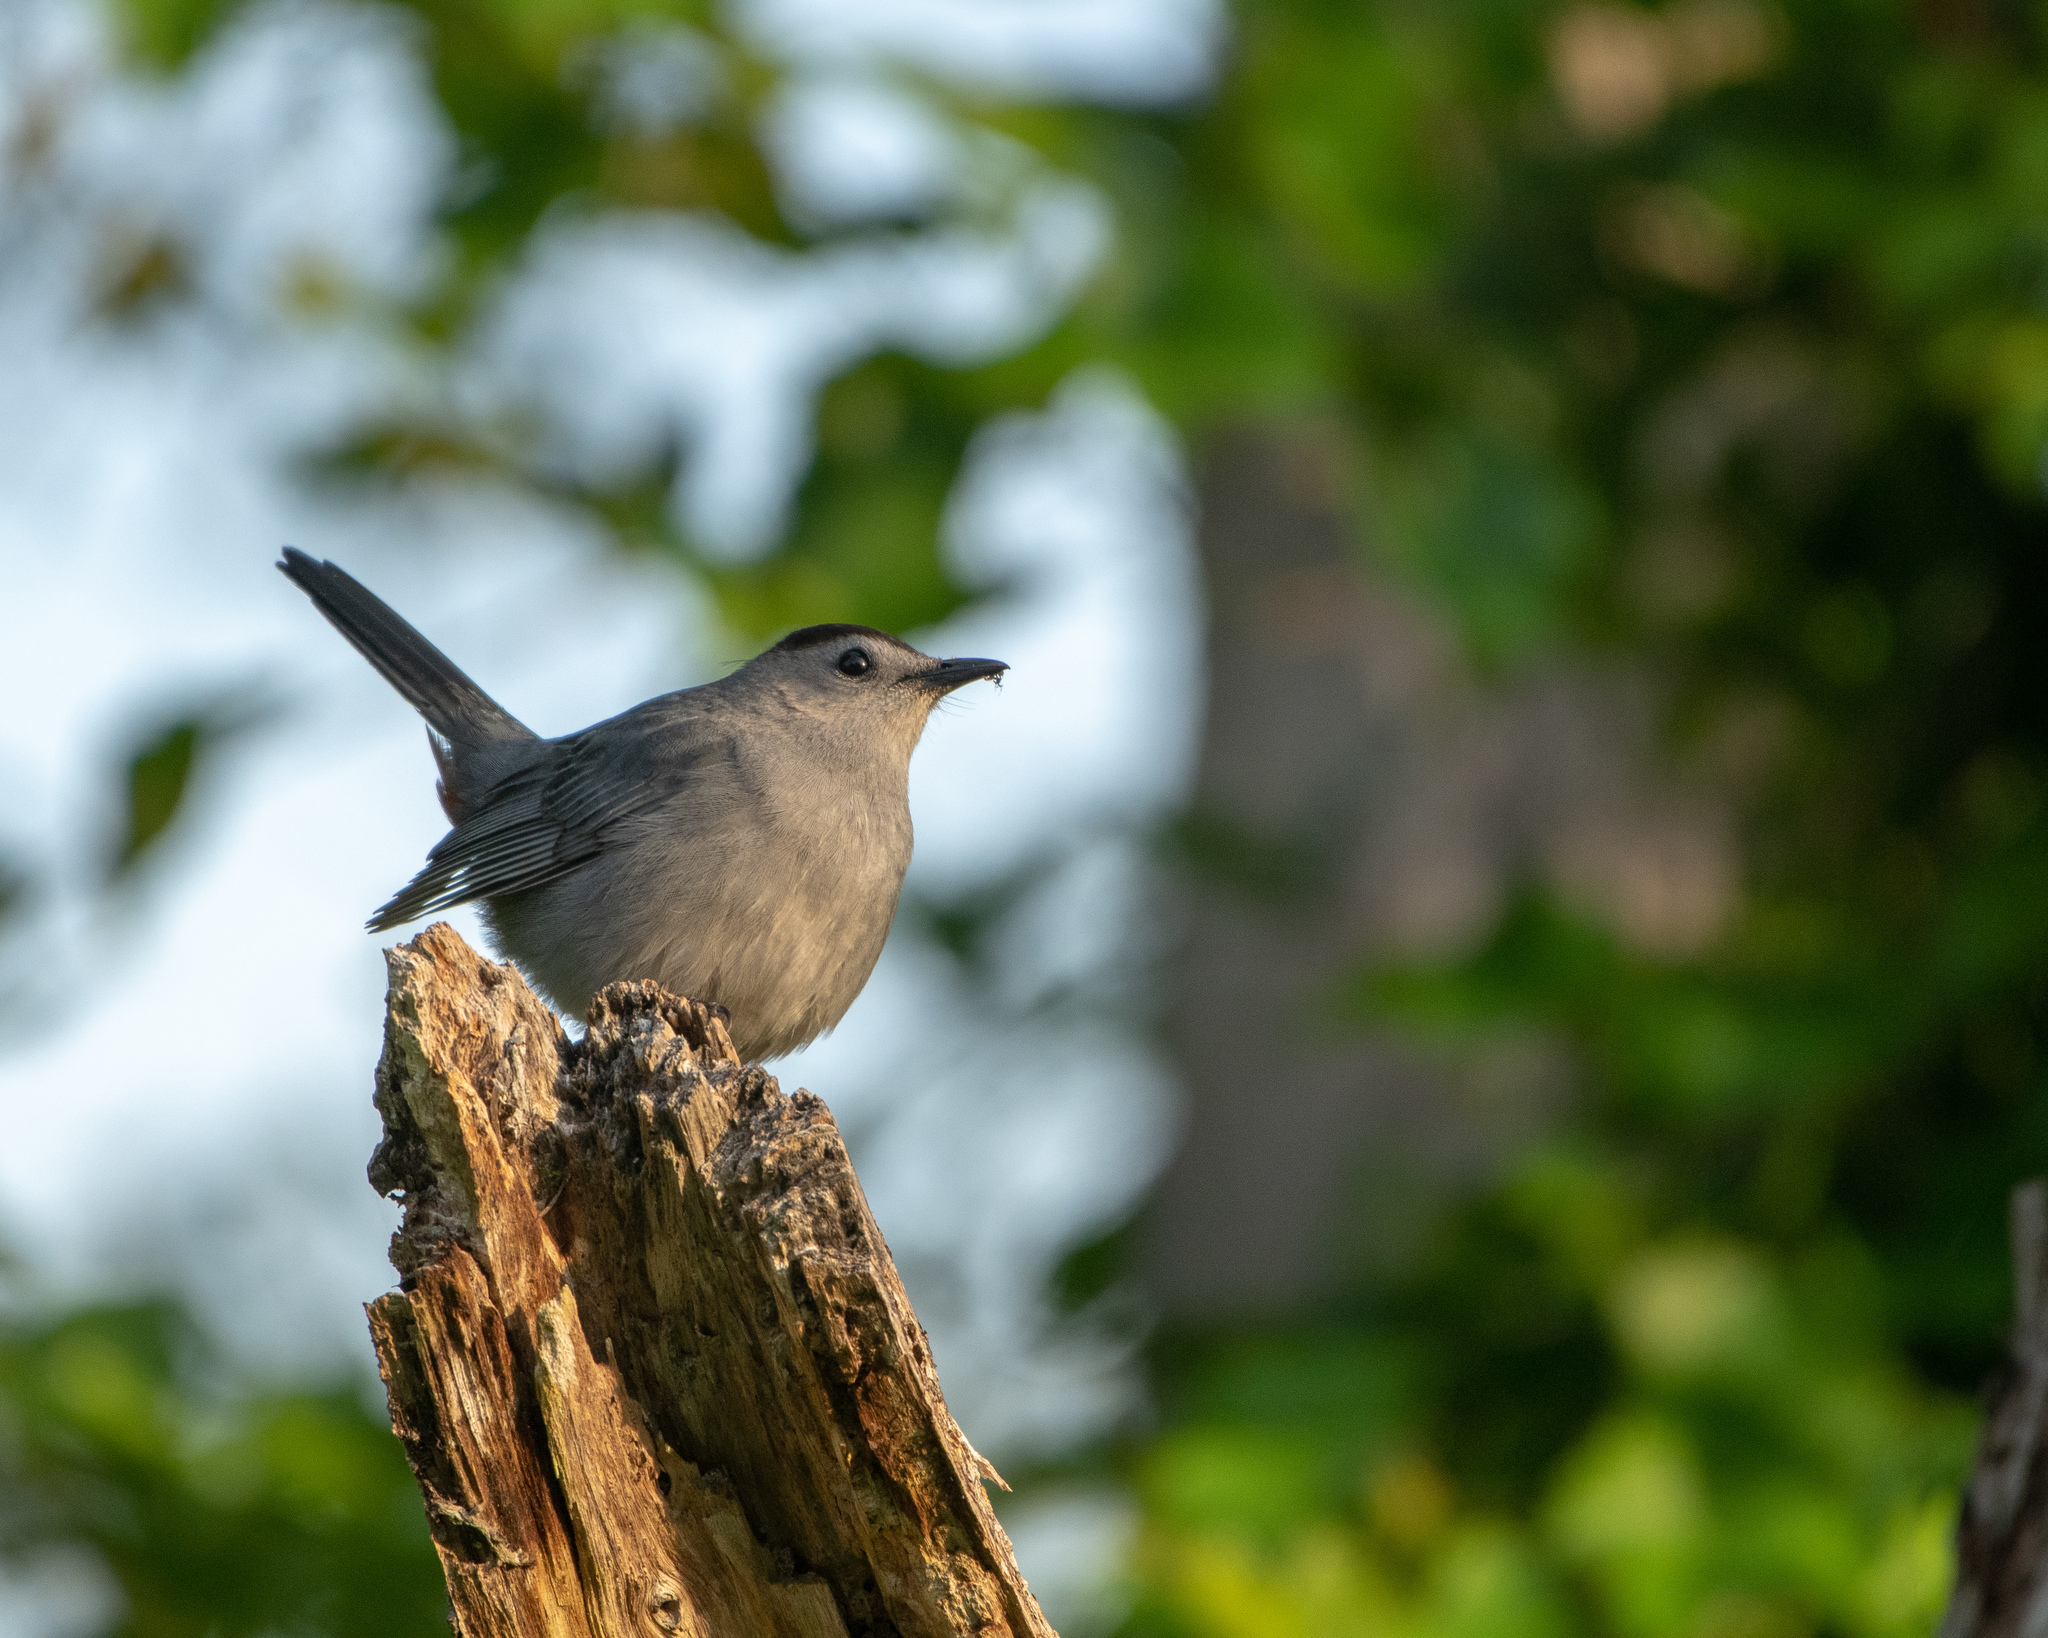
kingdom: Animalia
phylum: Chordata
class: Aves
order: Passeriformes
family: Mimidae
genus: Dumetella
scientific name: Dumetella carolinensis
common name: Gray catbird
